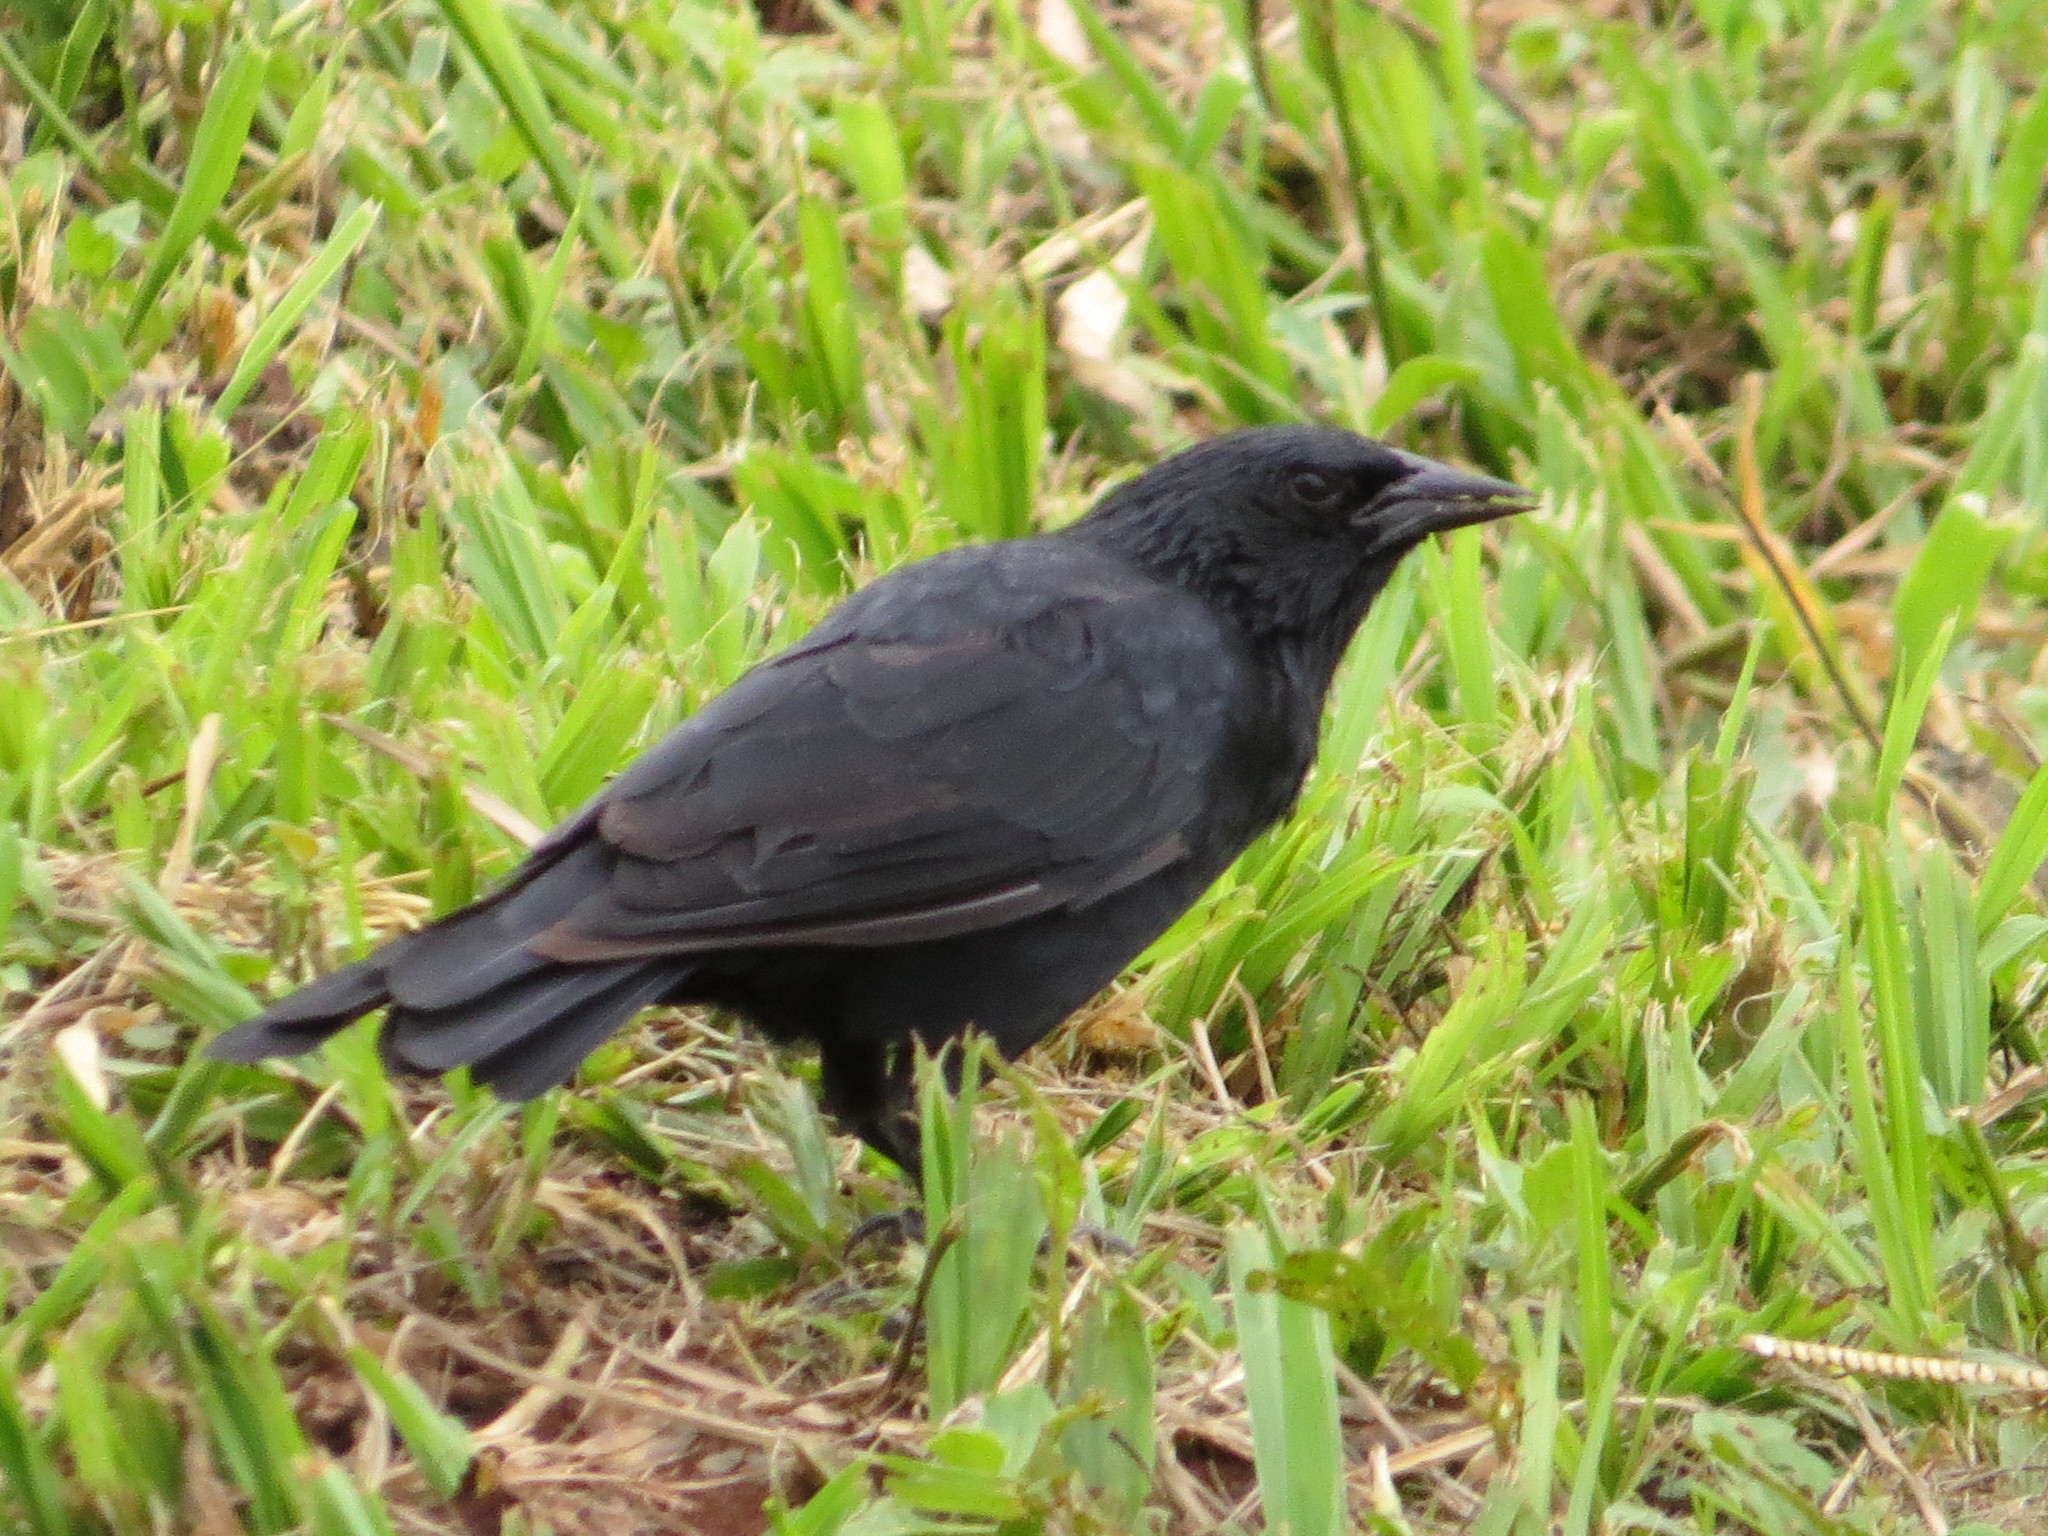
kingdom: Animalia
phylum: Chordata
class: Aves
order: Passeriformes
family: Icteridae
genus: Gnorimopsar
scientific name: Gnorimopsar chopi
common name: Chopi blackbird
